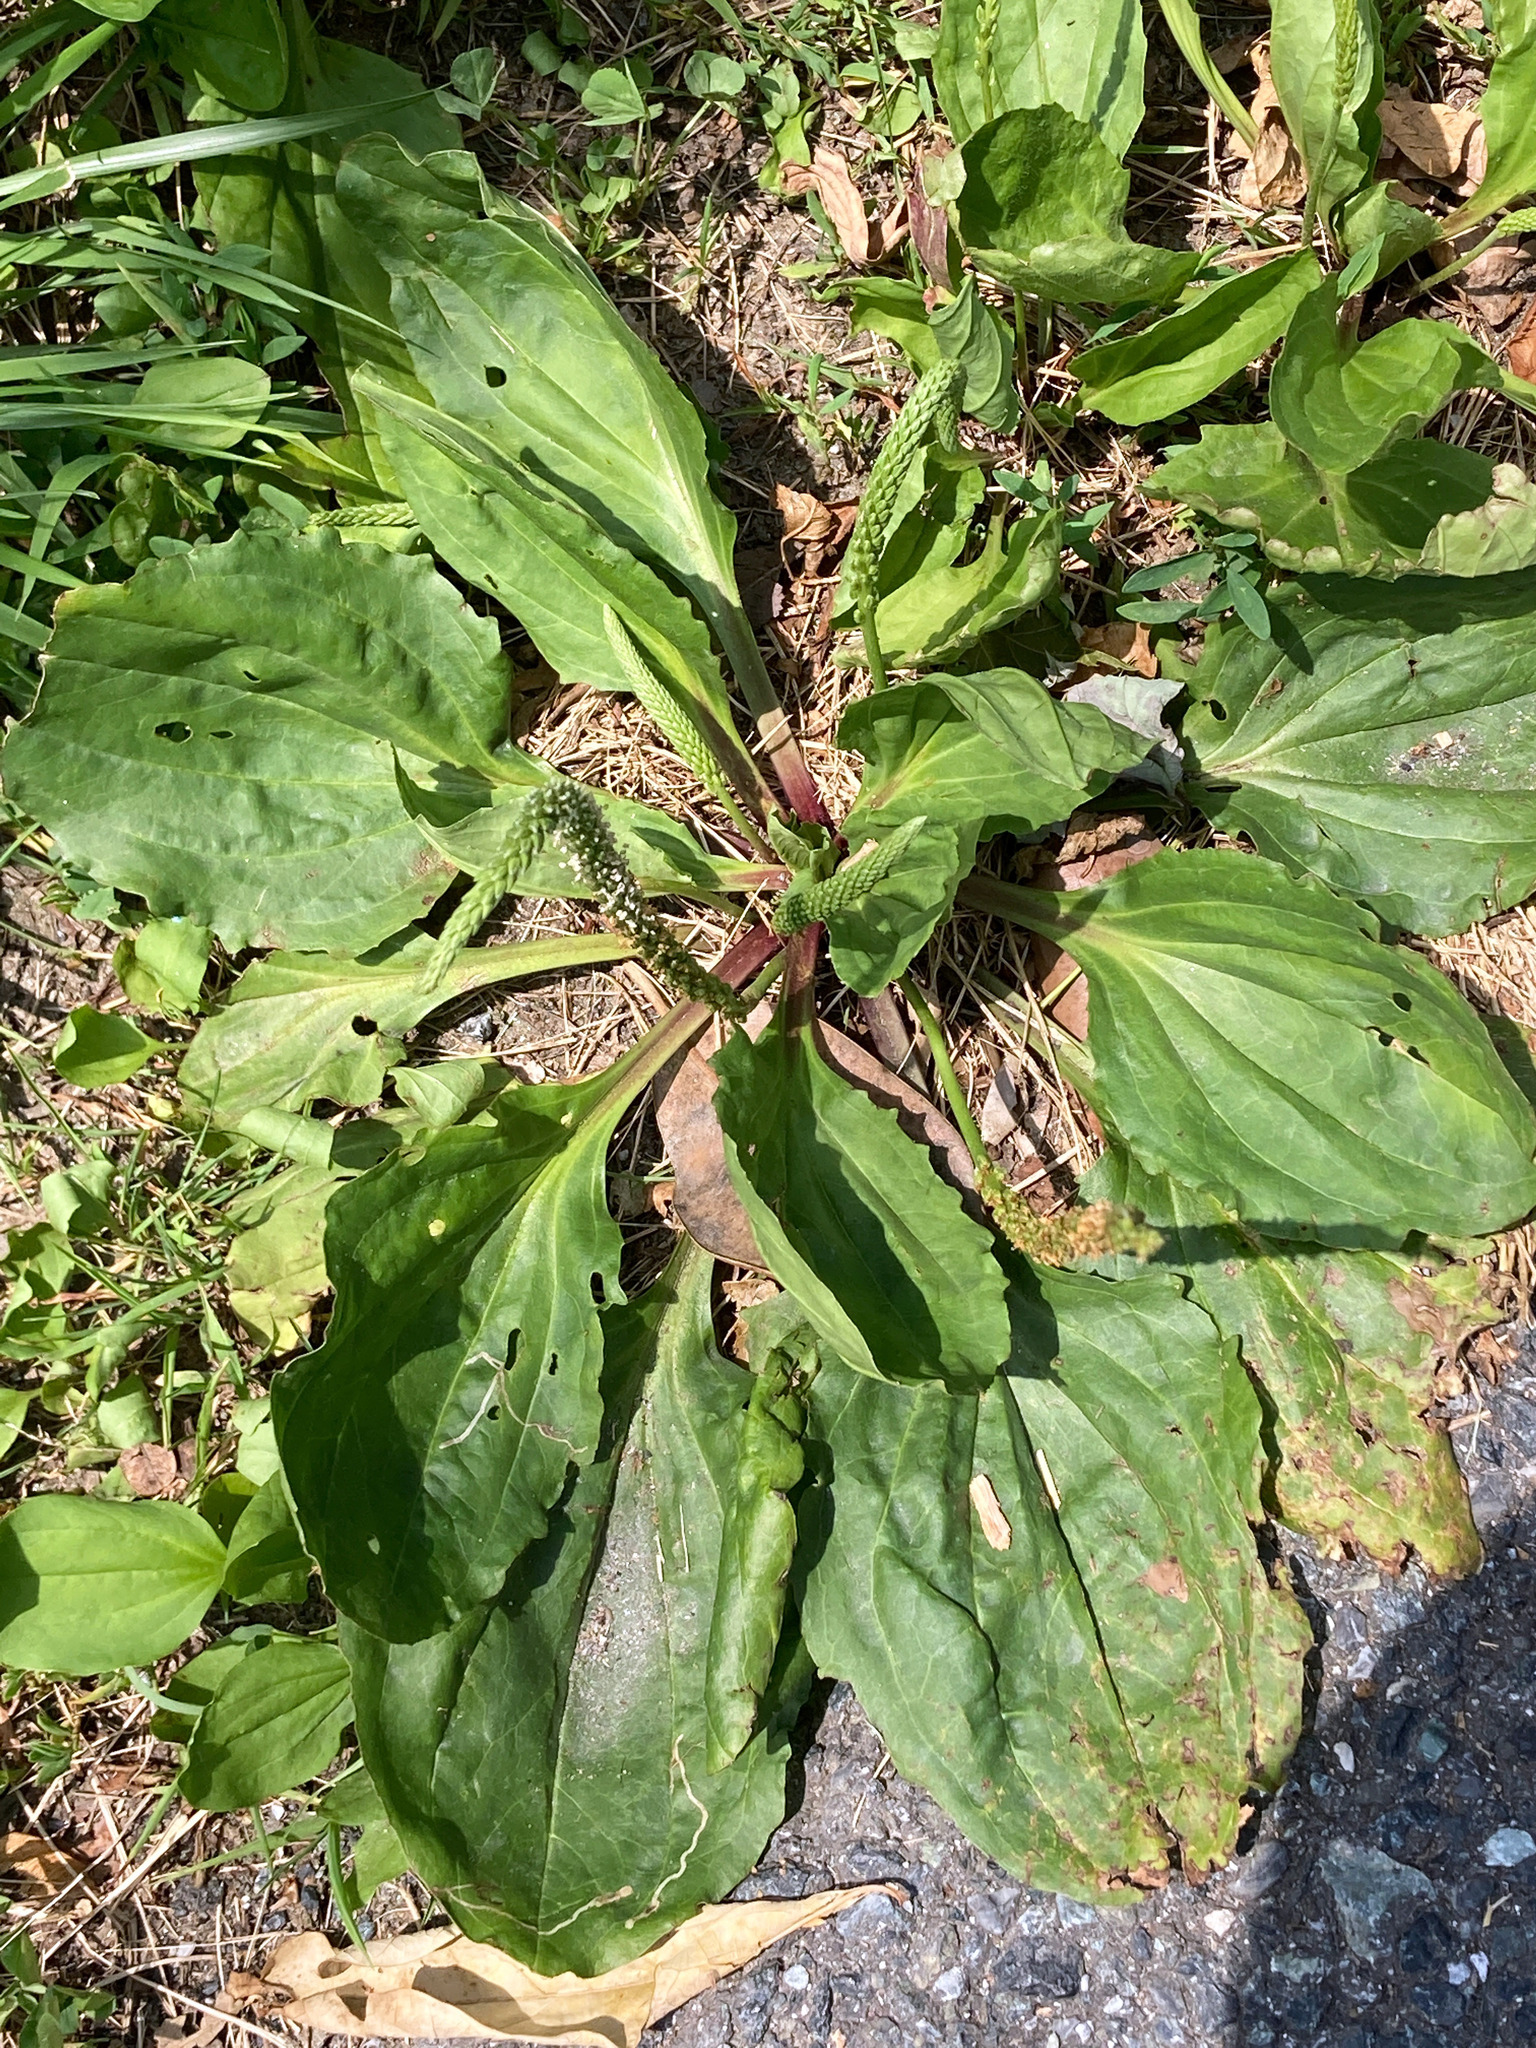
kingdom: Plantae
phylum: Tracheophyta
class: Magnoliopsida
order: Lamiales
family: Plantaginaceae
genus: Plantago
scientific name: Plantago rugelii
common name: American plantain
